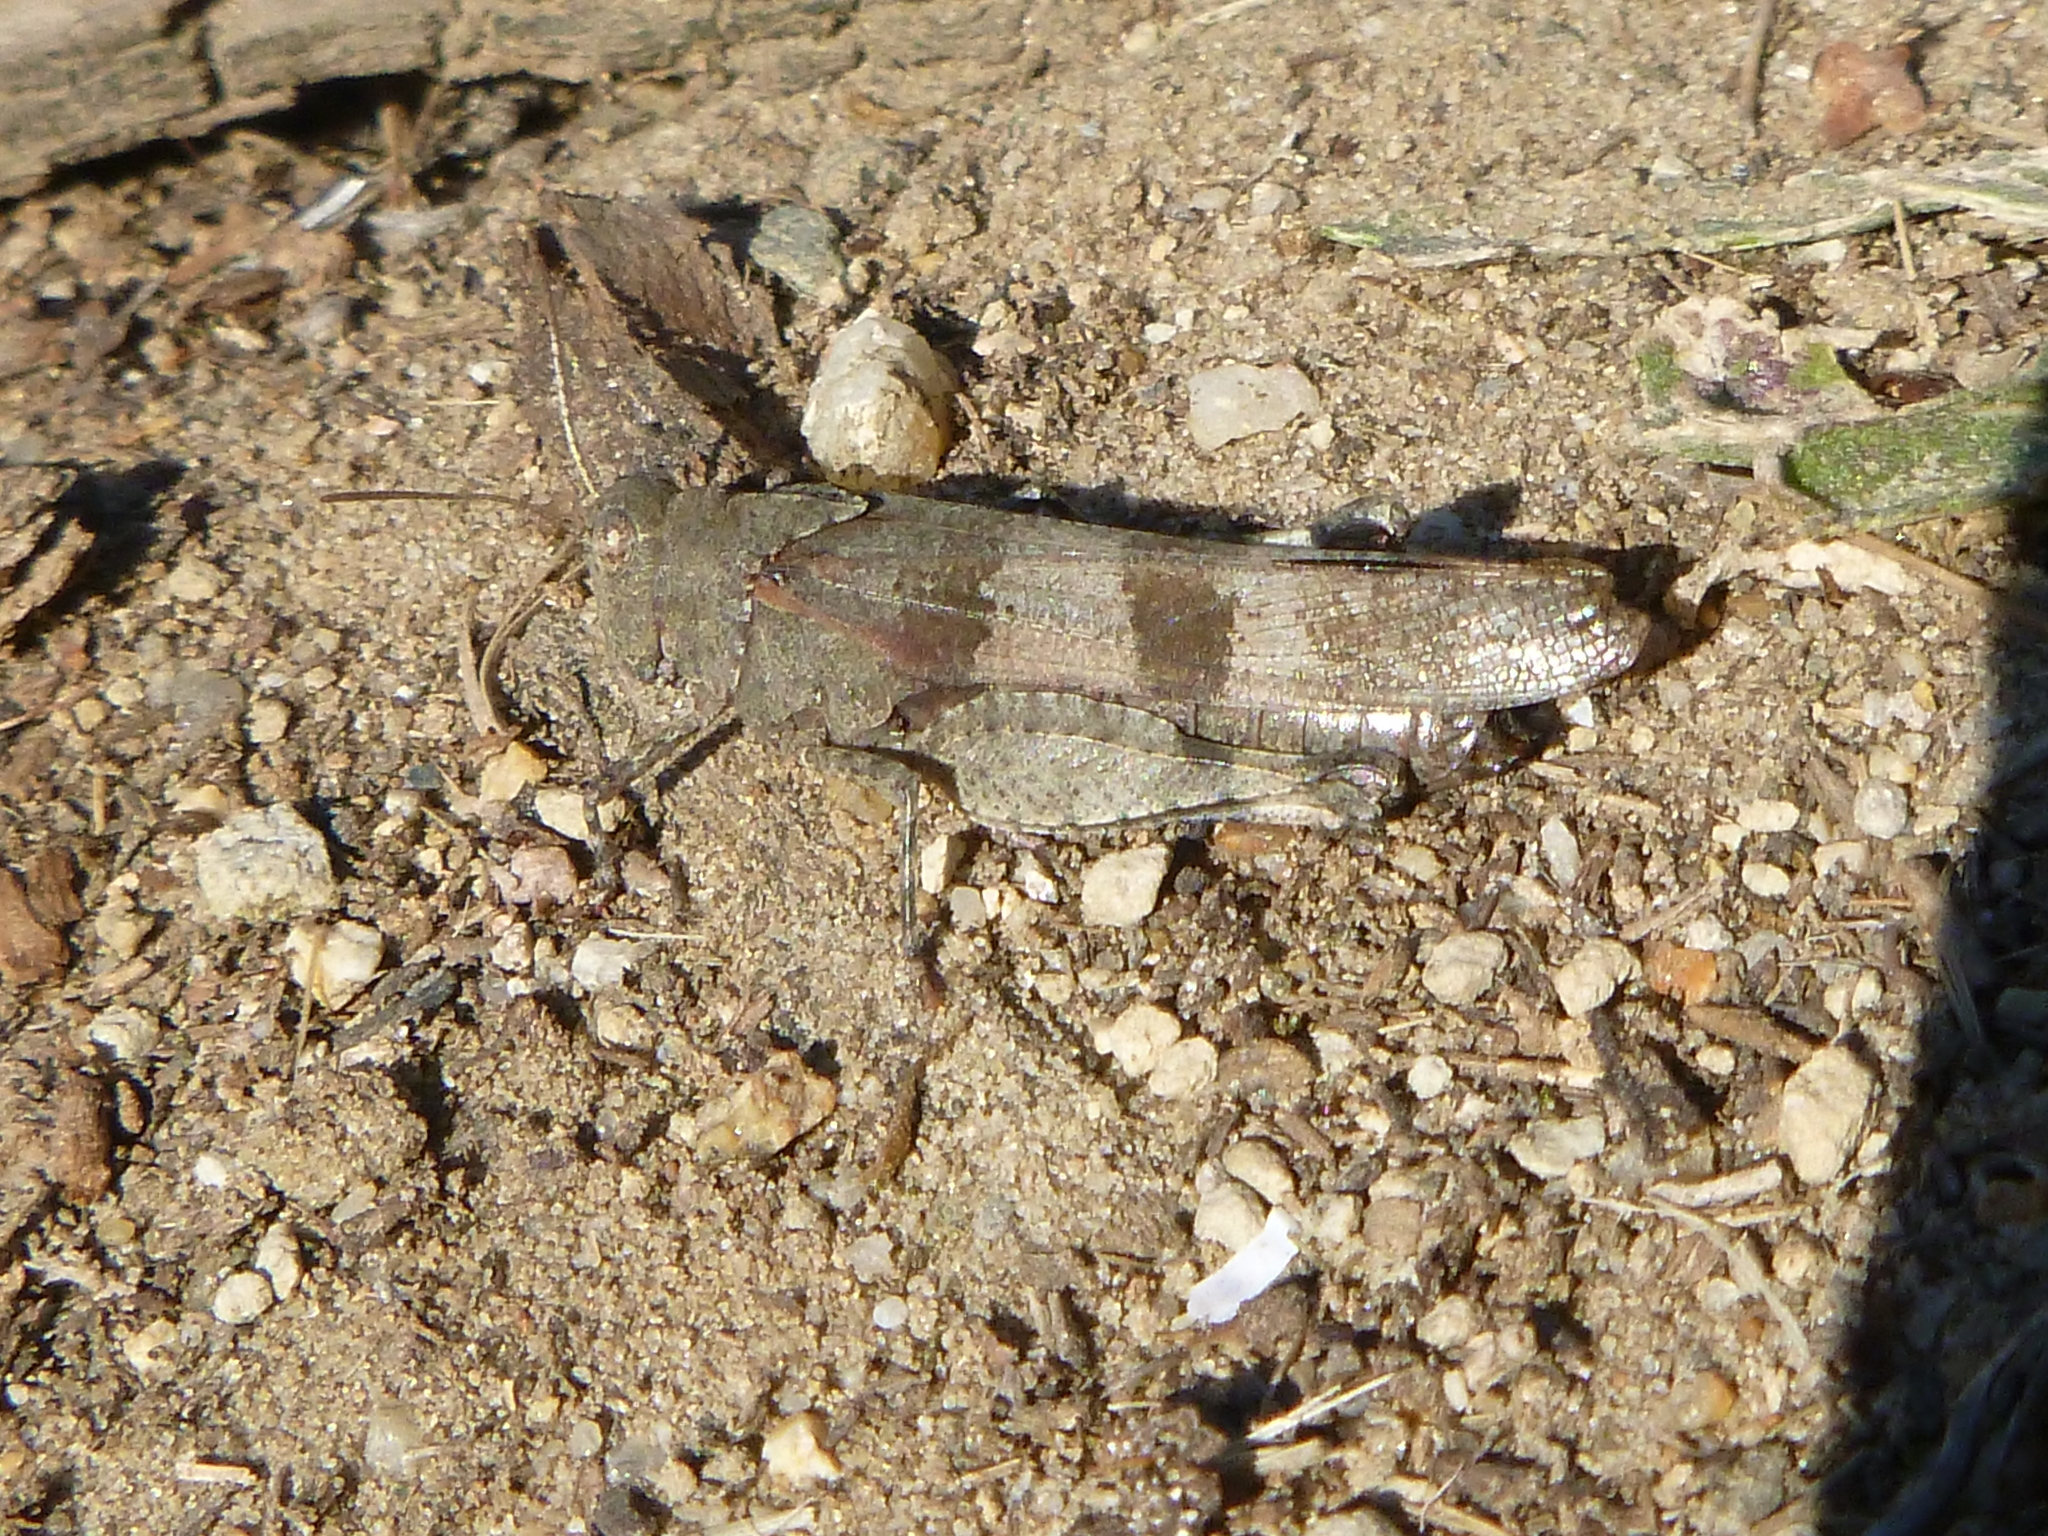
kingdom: Animalia
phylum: Arthropoda
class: Insecta
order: Orthoptera
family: Acrididae
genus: Oedipoda
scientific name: Oedipoda caerulescens
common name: Blue-winged grasshopper
